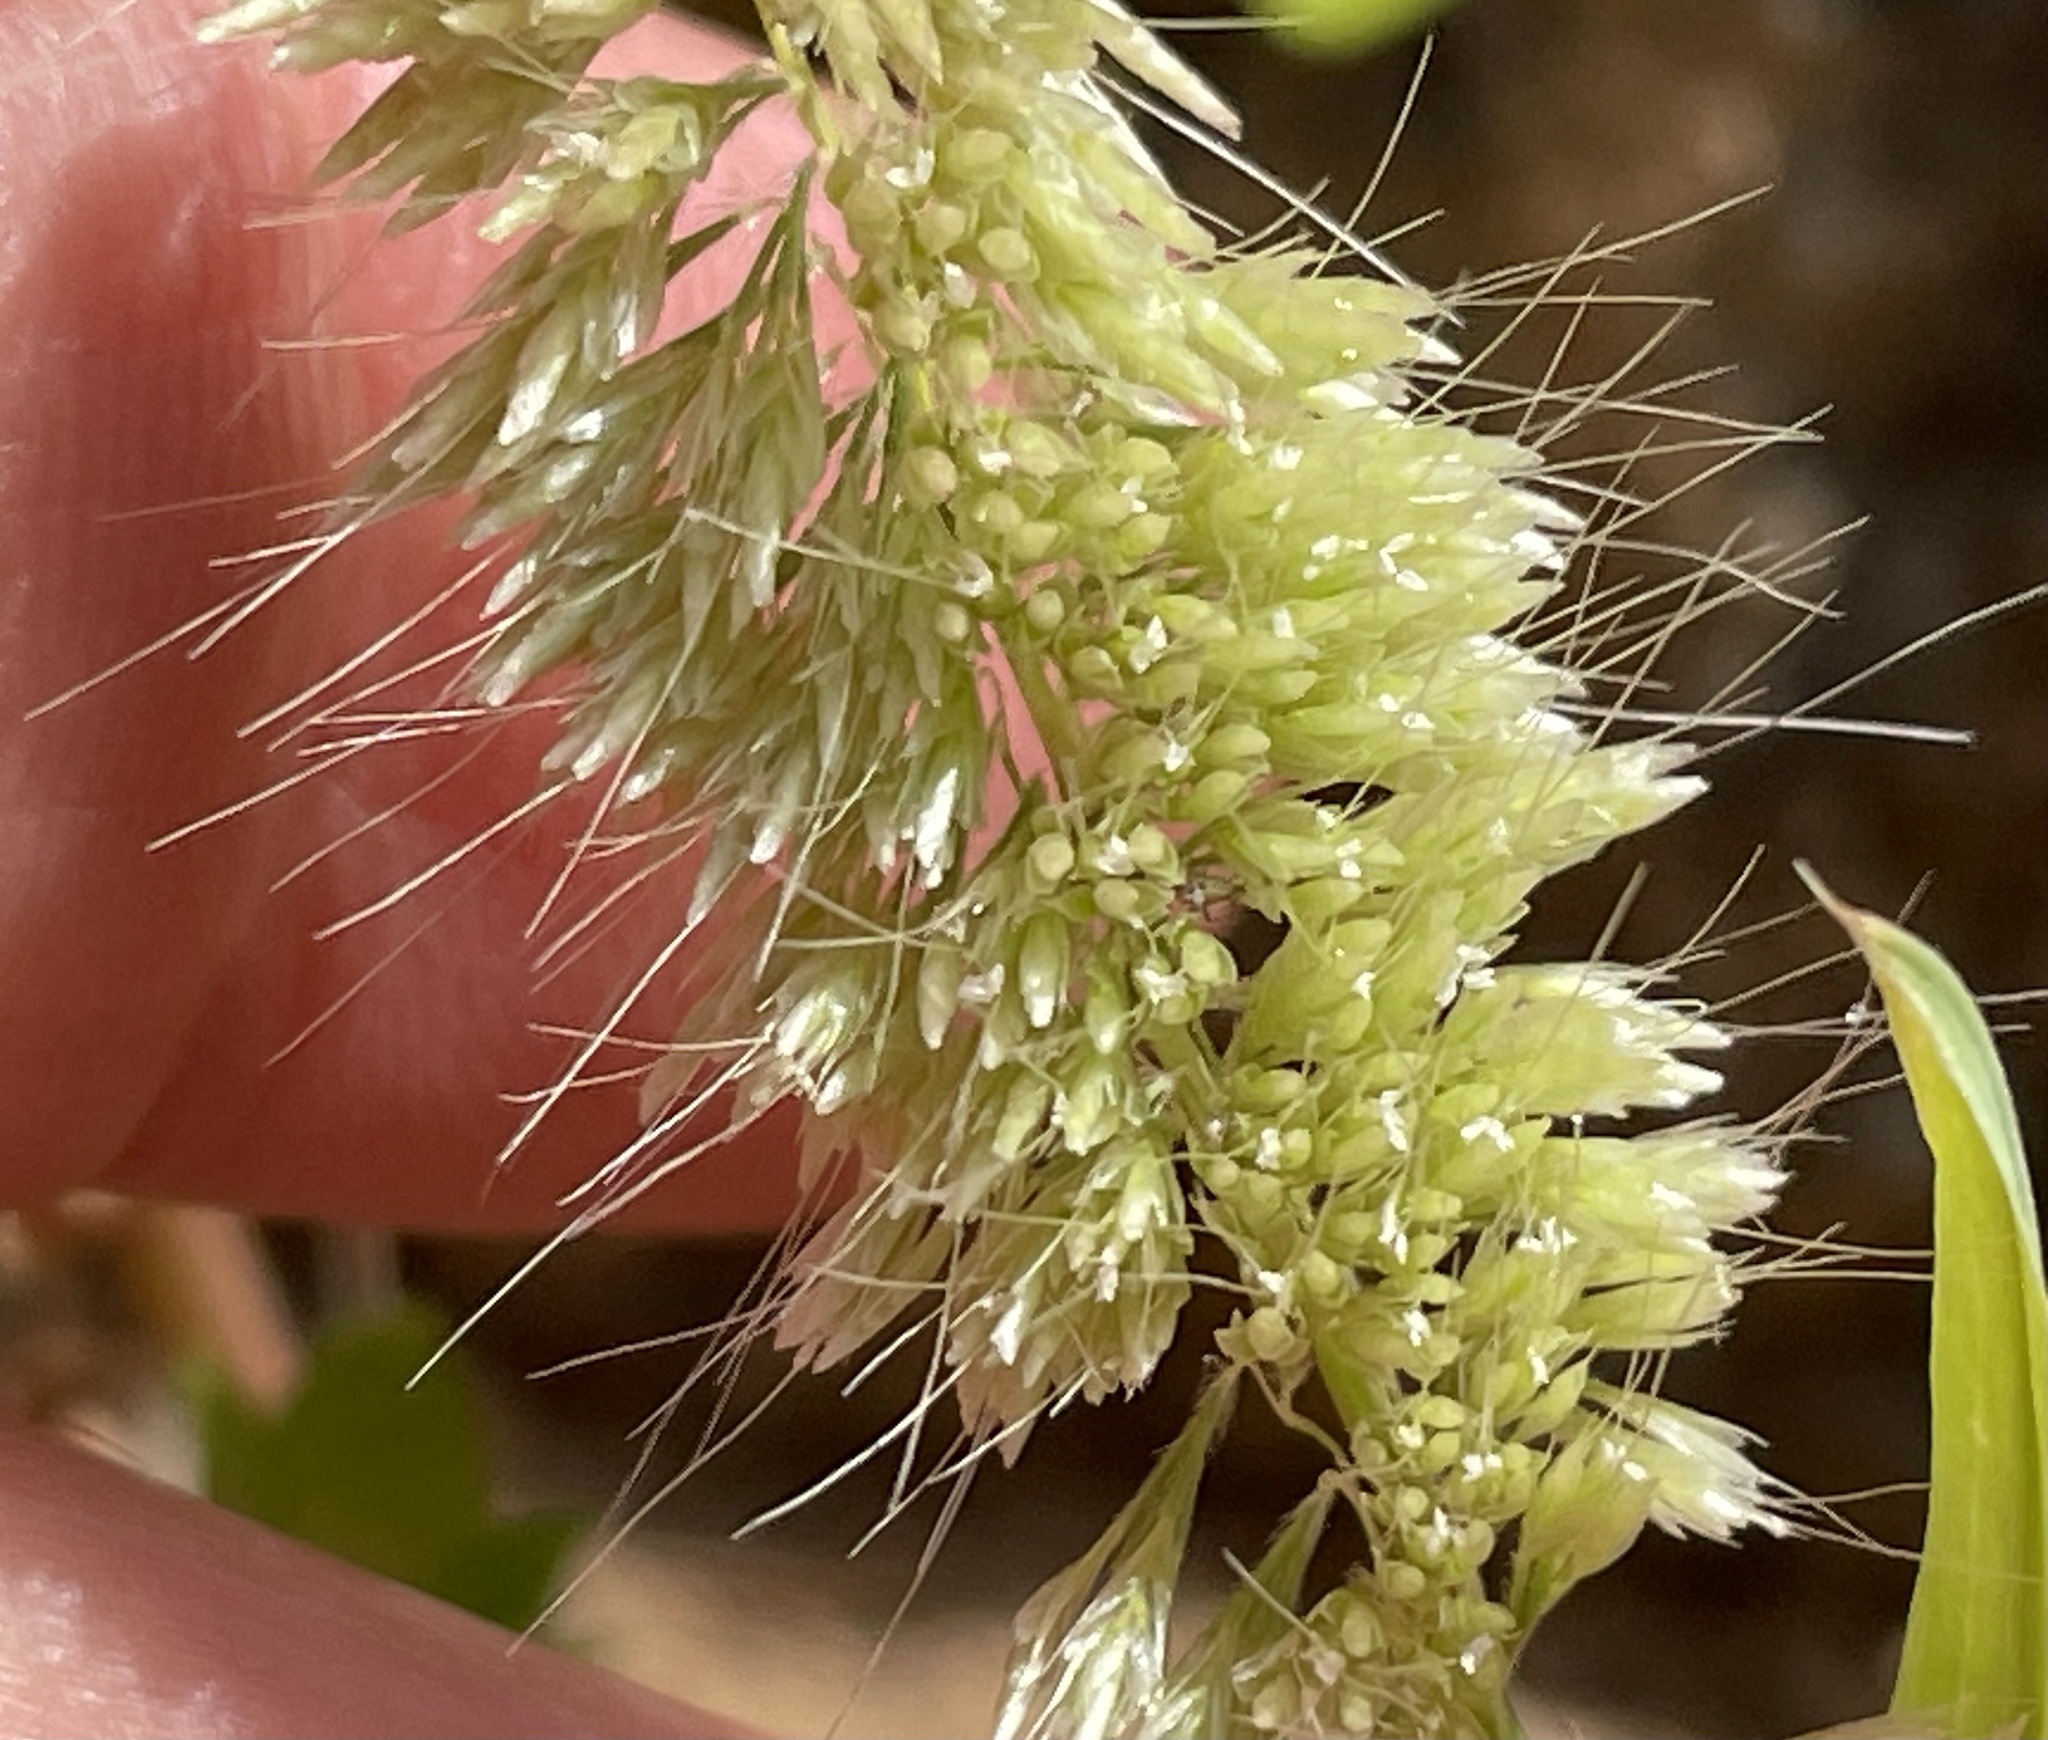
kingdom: Plantae
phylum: Tracheophyta
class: Liliopsida
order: Poales
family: Poaceae
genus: Lamarckia
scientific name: Lamarckia aurea
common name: Golden dog's-tail
